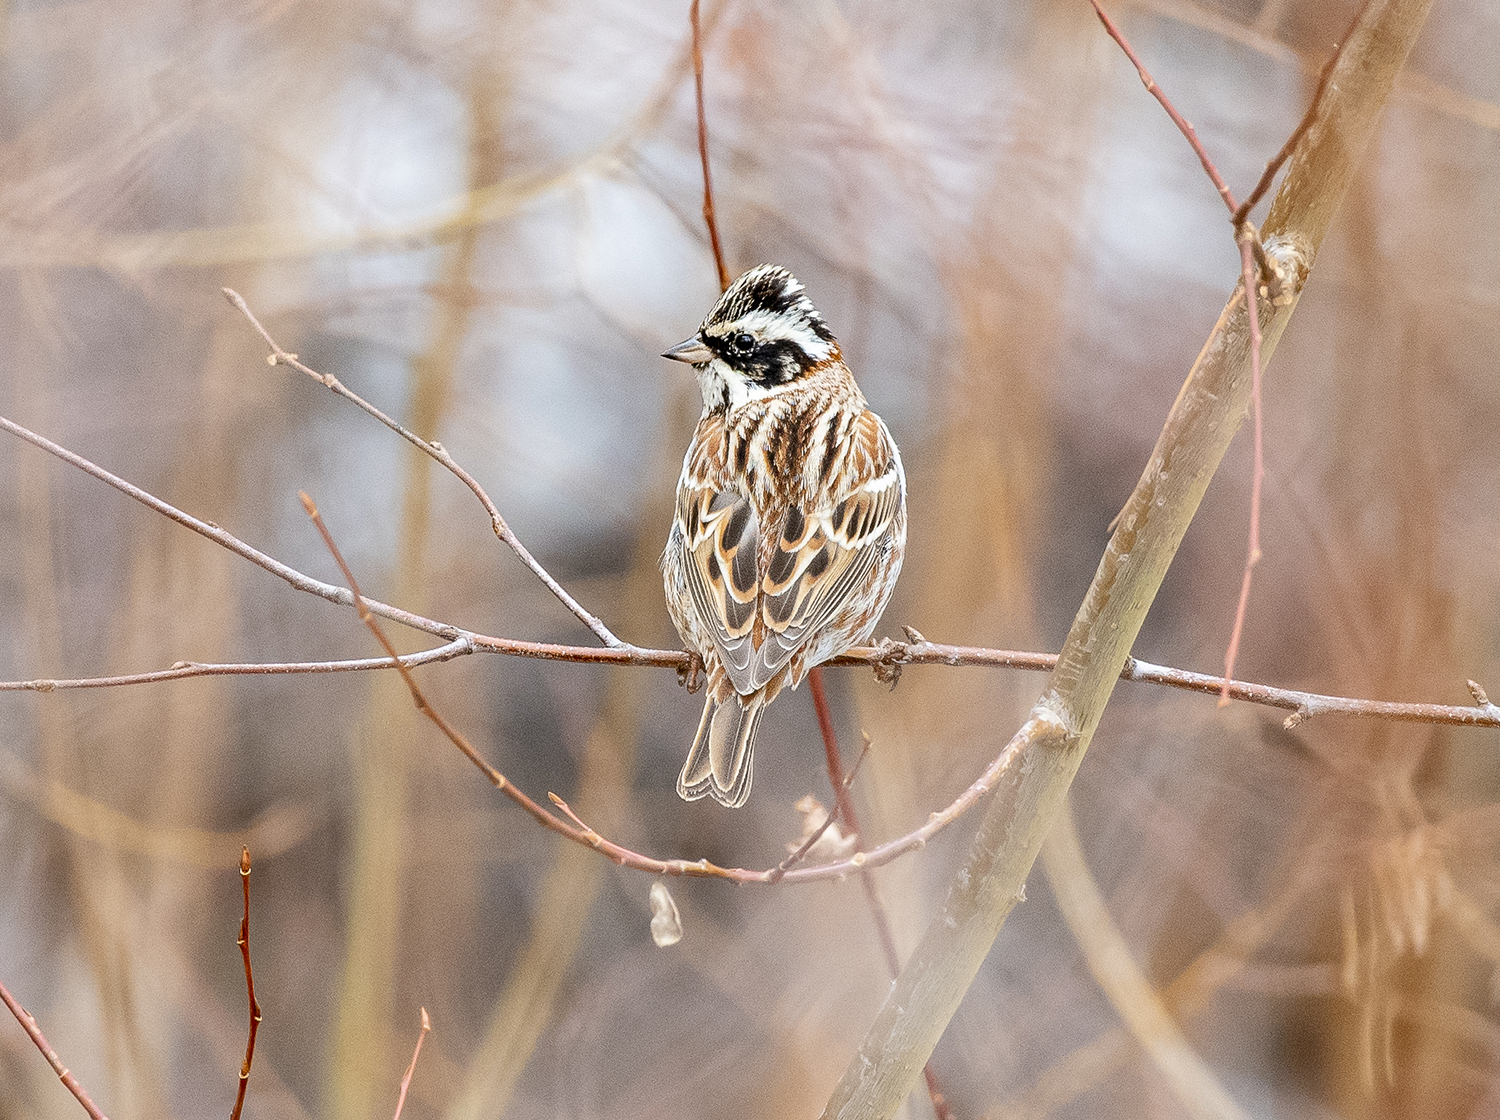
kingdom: Animalia
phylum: Chordata
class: Aves
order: Passeriformes
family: Emberizidae
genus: Emberiza
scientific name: Emberiza rustica
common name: Rustic bunting
